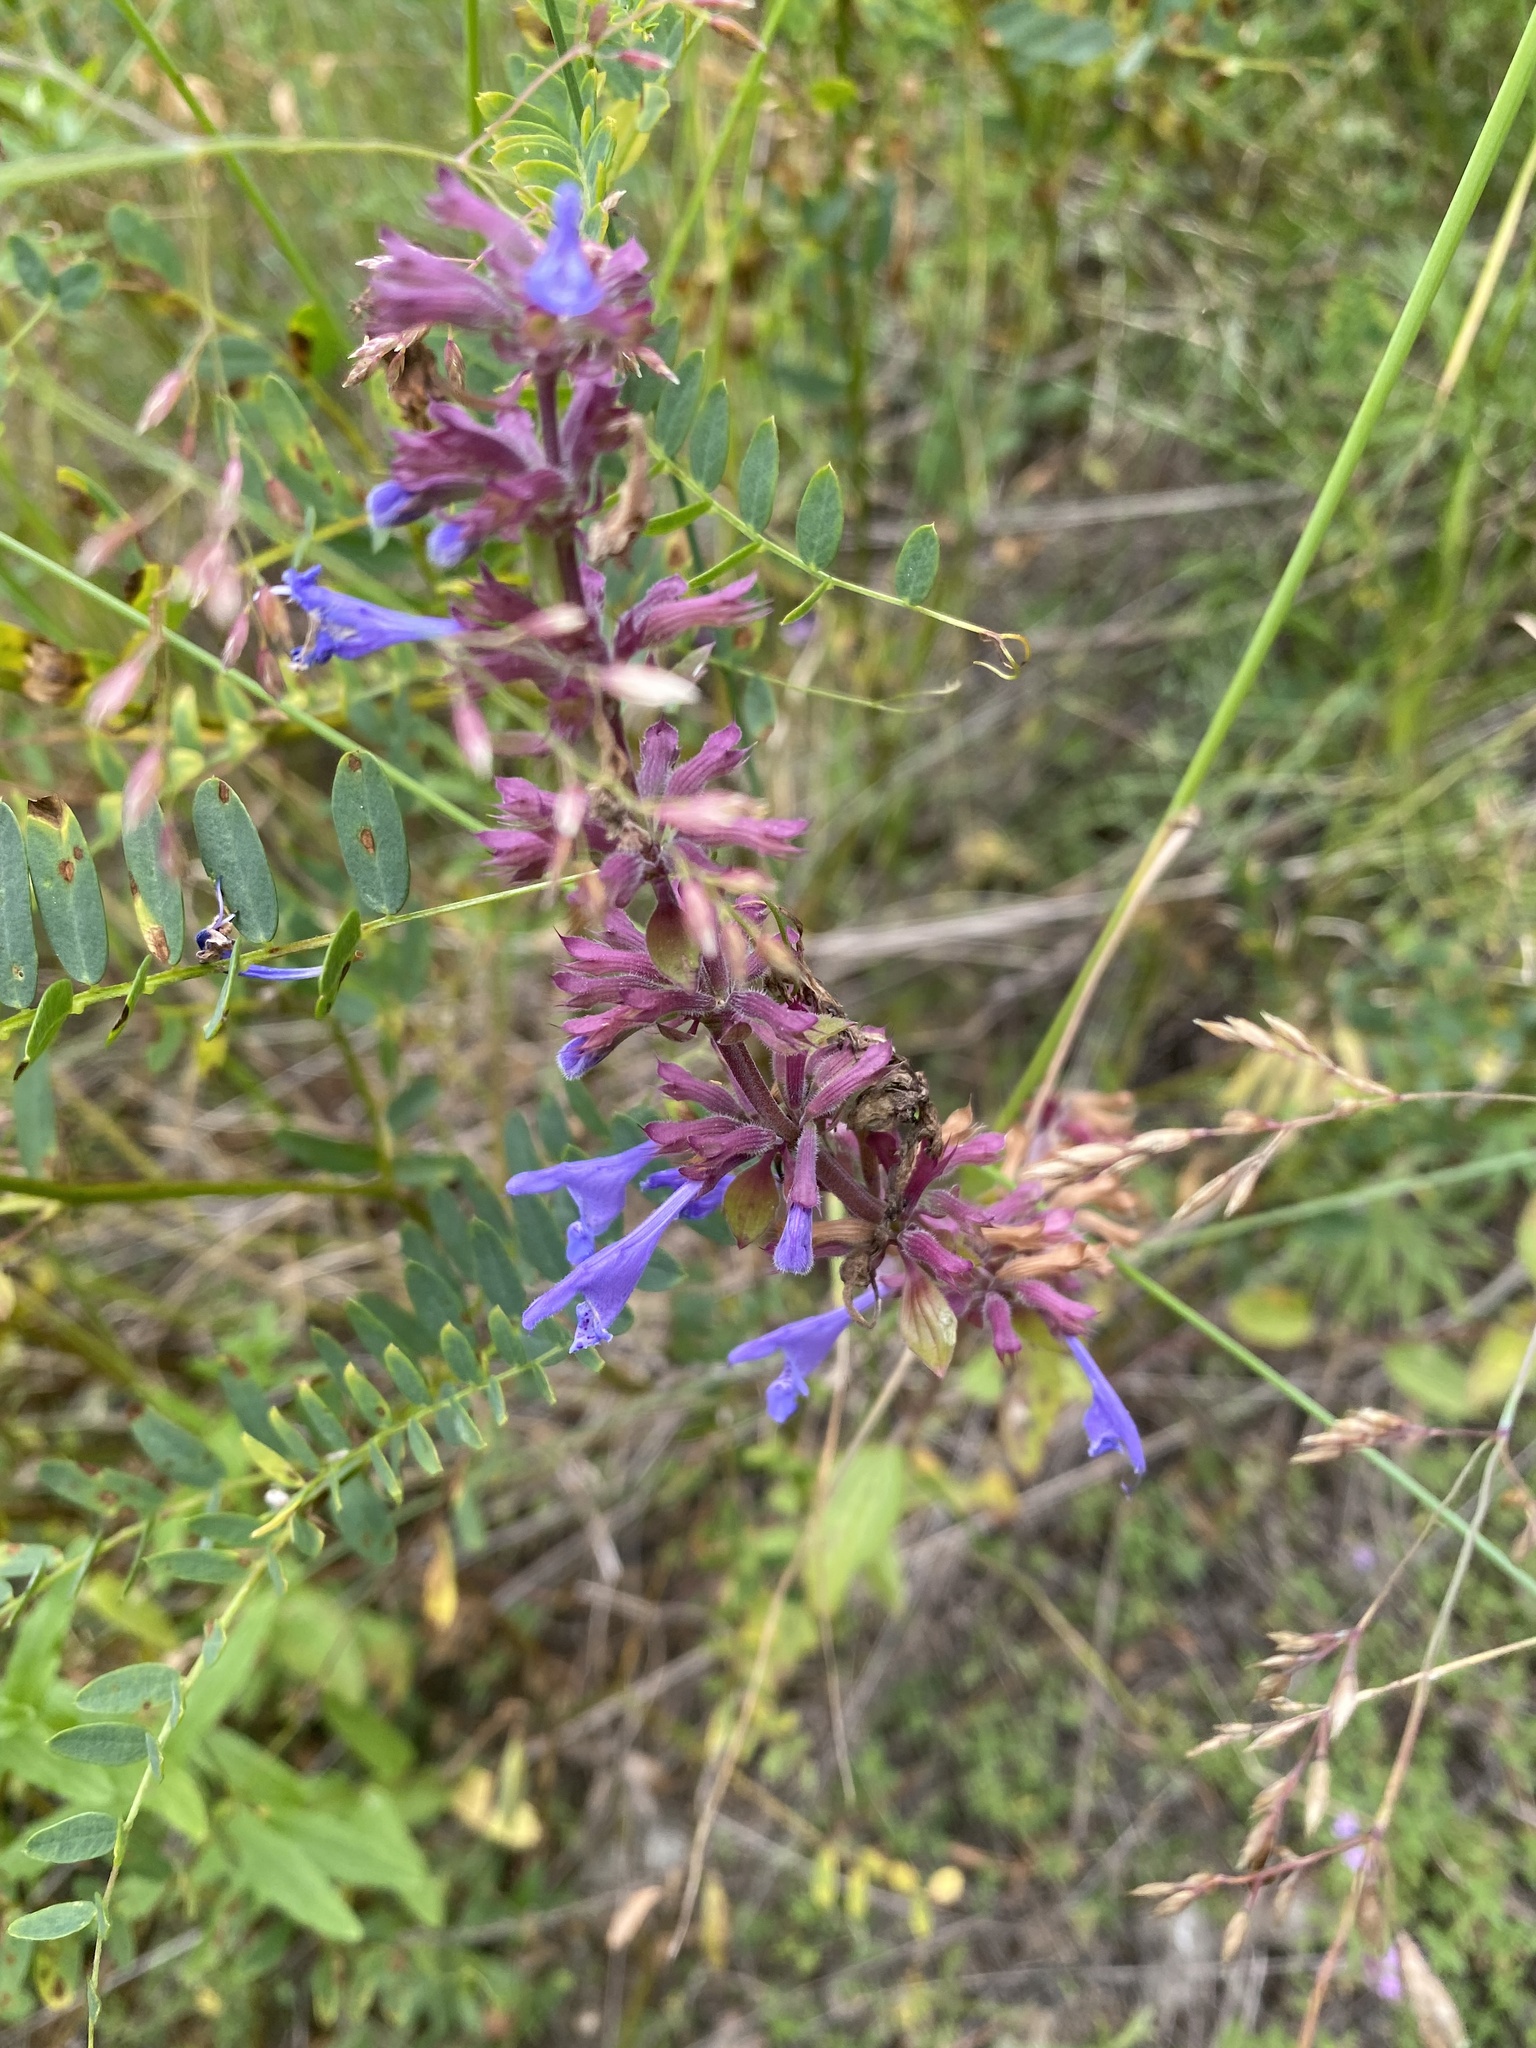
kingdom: Plantae
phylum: Tracheophyta
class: Magnoliopsida
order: Lamiales
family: Lamiaceae
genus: Dracocephalum
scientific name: Dracocephalum nutans
